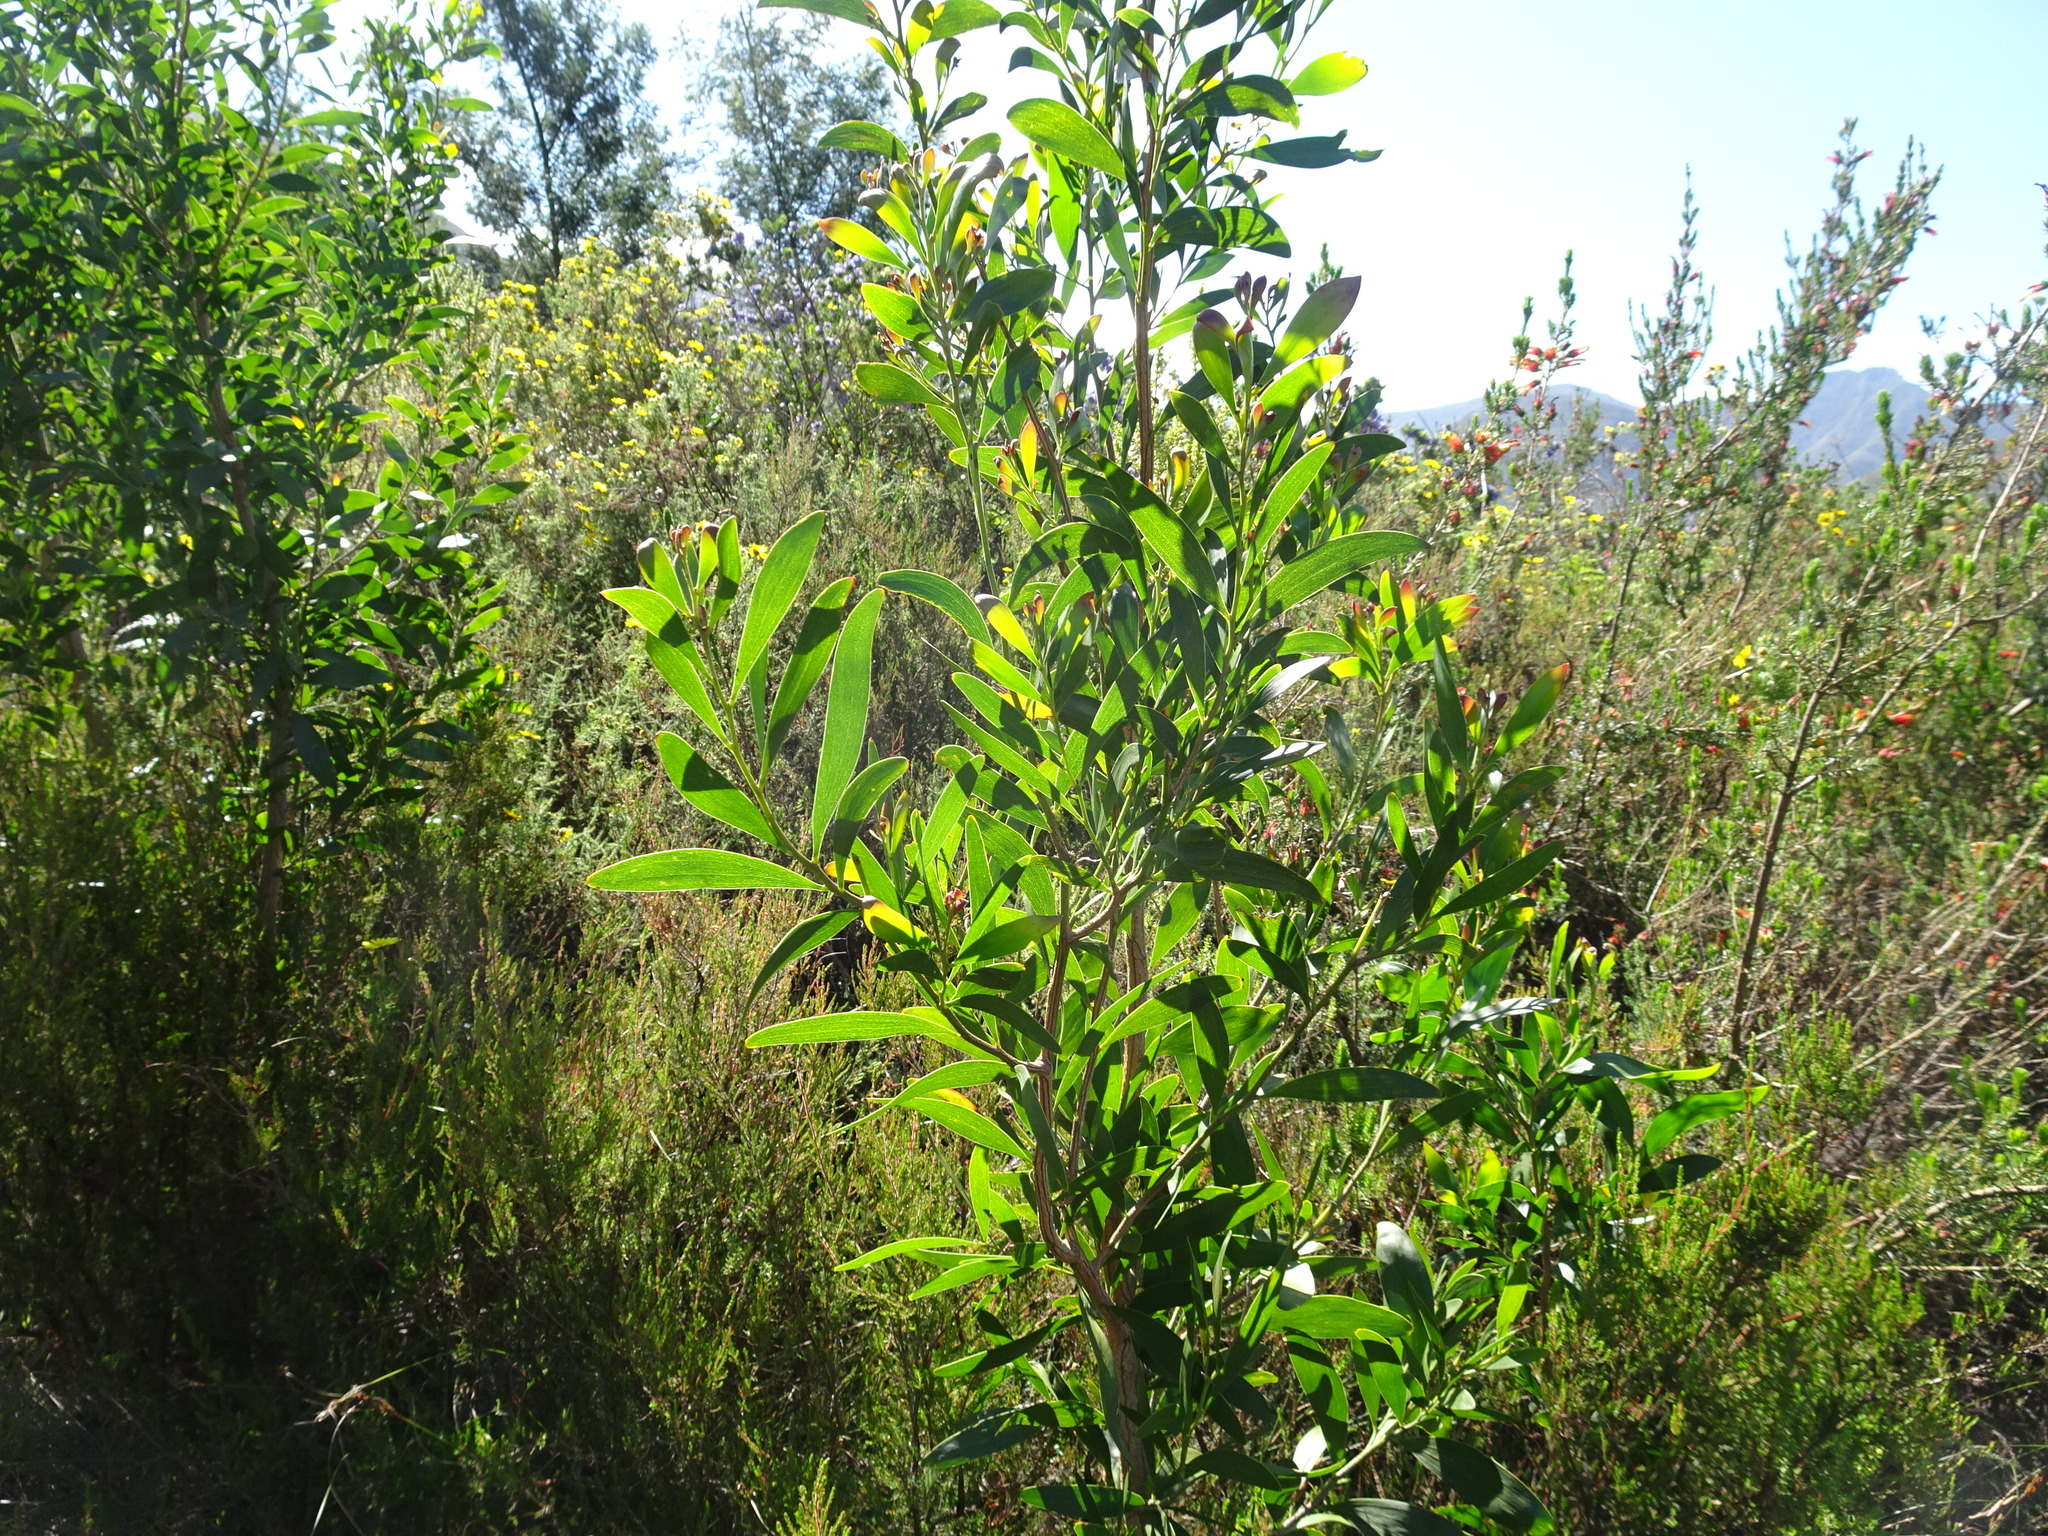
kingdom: Plantae
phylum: Tracheophyta
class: Magnoliopsida
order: Fabales
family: Fabaceae
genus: Acacia
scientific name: Acacia melanoxylon
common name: Blackwood
